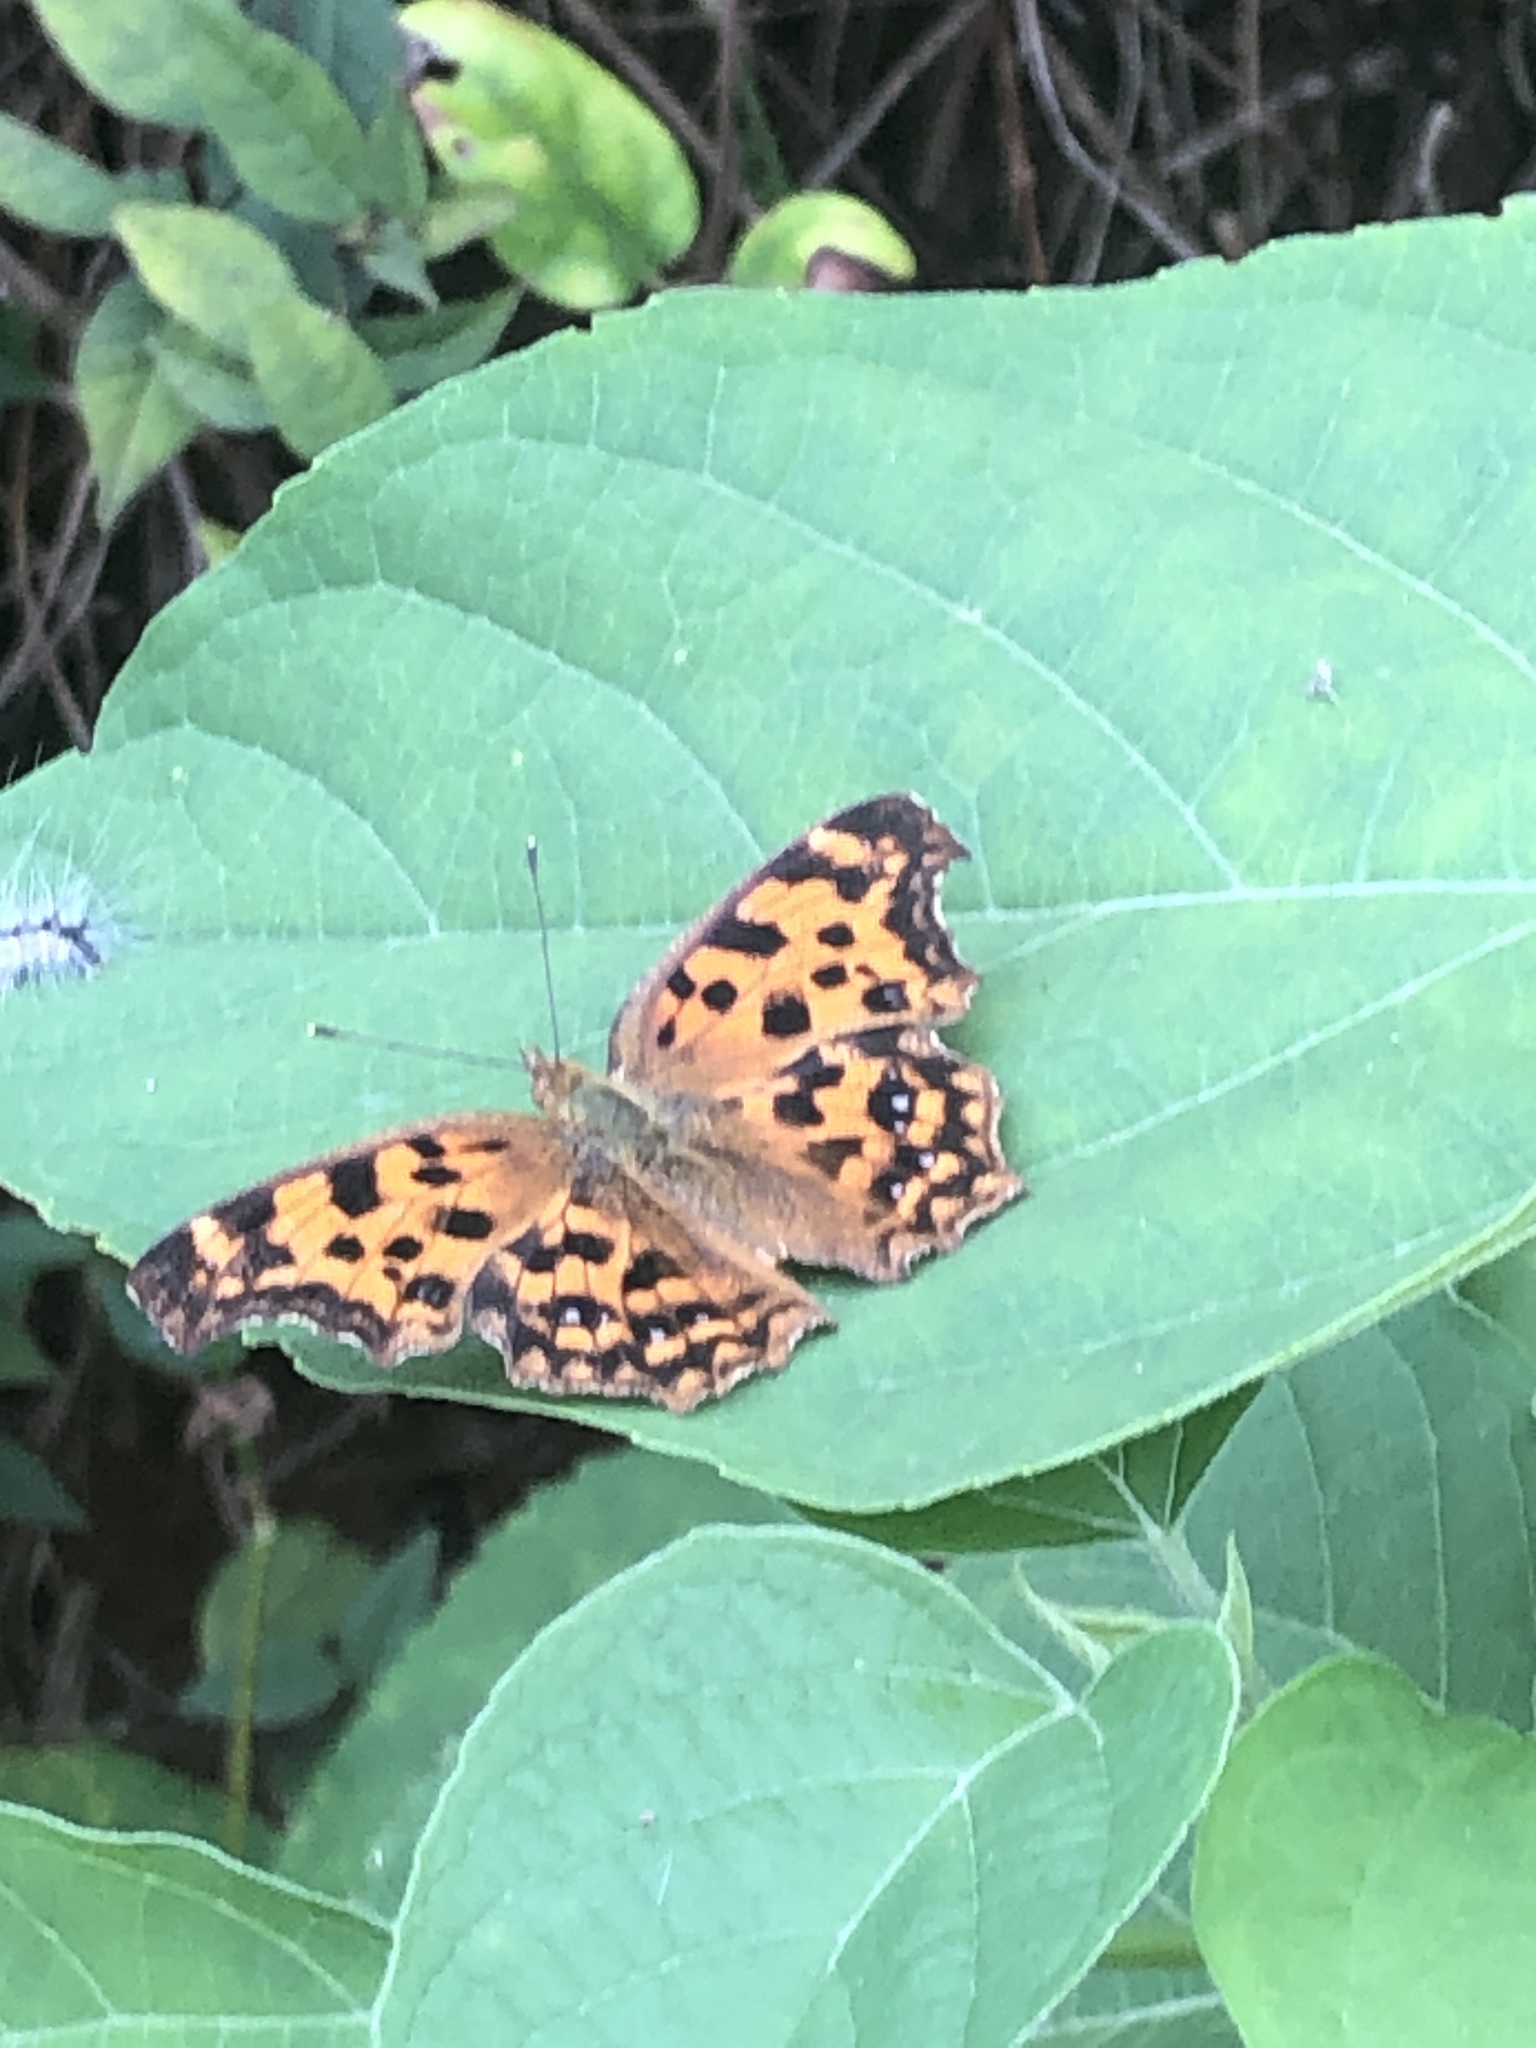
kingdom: Animalia
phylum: Arthropoda
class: Insecta
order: Lepidoptera
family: Nymphalidae
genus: Polygonia
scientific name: Polygonia c-aureum
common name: Asian comma
